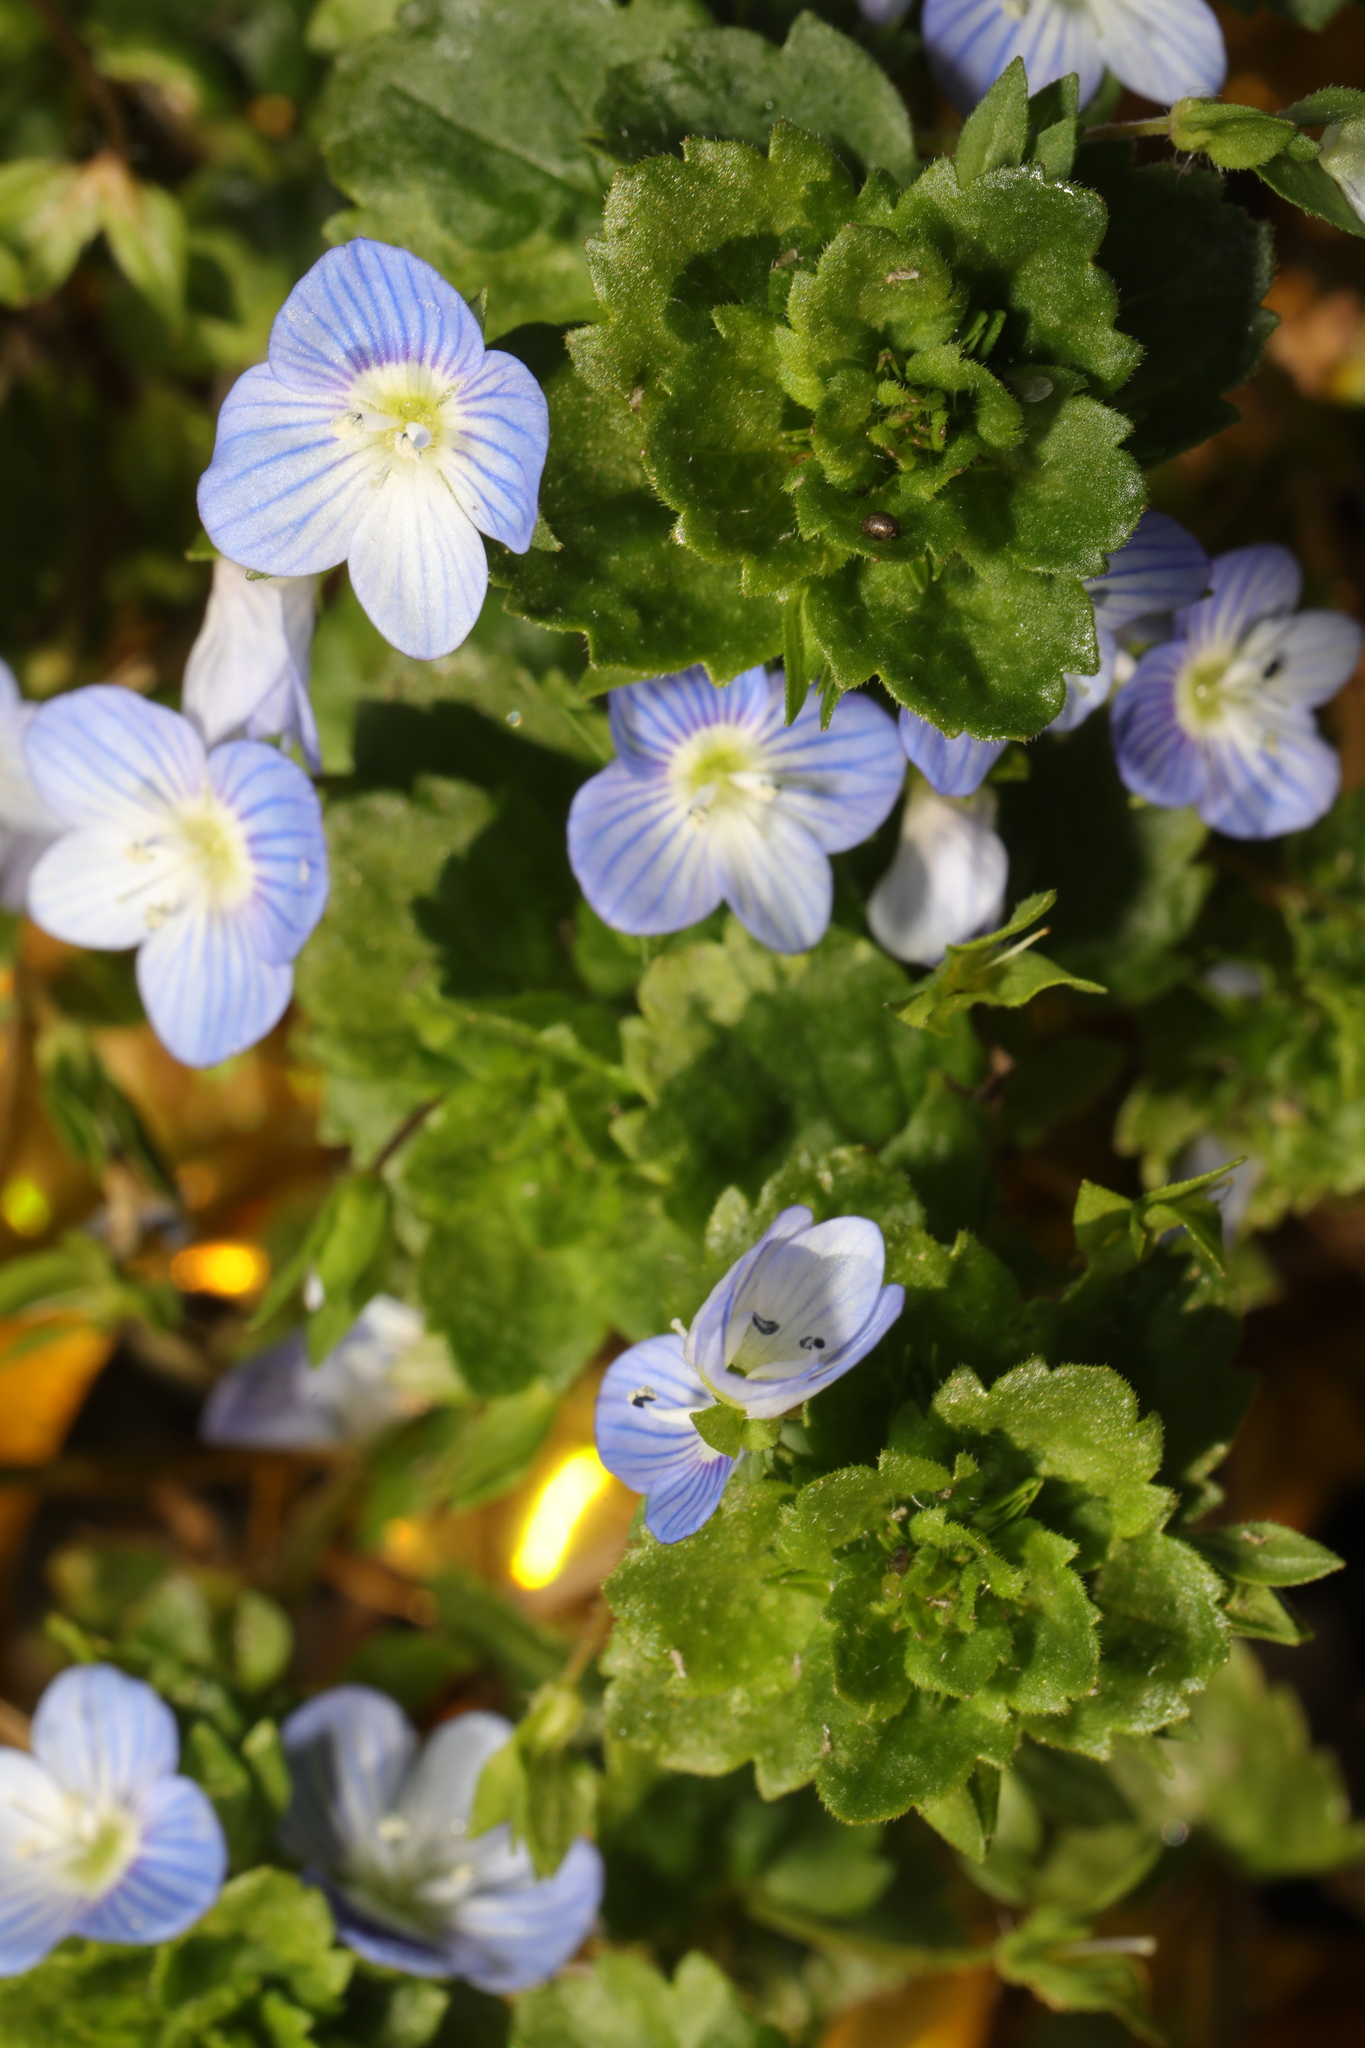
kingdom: Plantae
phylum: Tracheophyta
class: Magnoliopsida
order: Lamiales
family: Plantaginaceae
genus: Veronica
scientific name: Veronica persica
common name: Common field-speedwell
